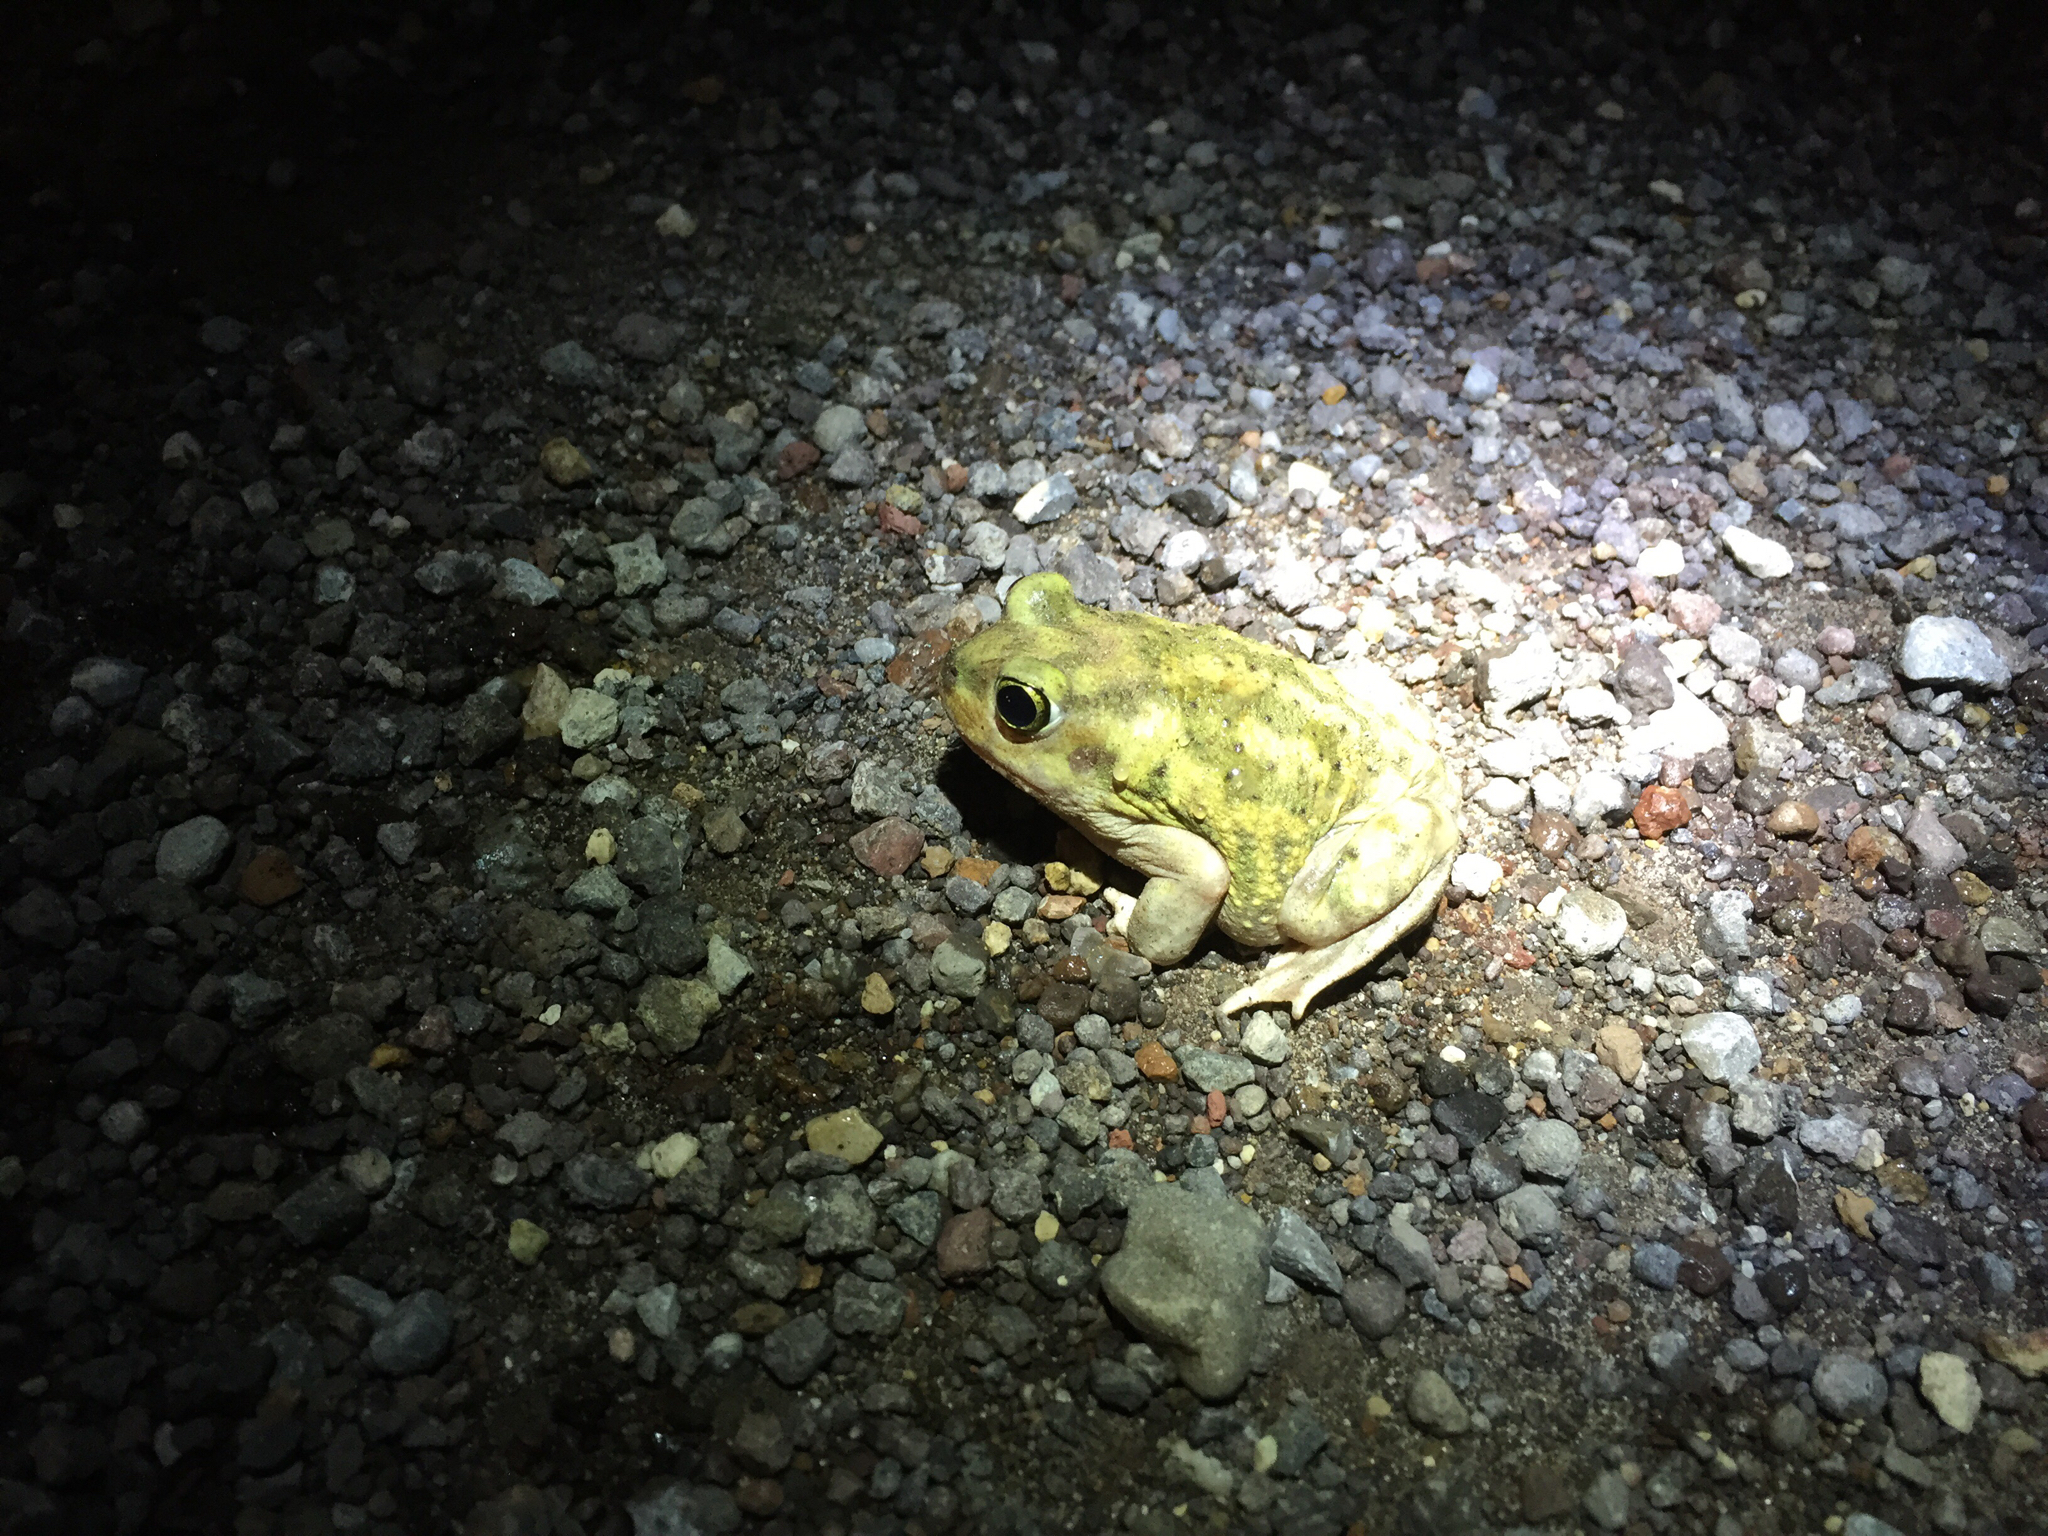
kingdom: Animalia
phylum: Chordata
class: Amphibia
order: Anura
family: Scaphiopodidae
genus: Scaphiopus
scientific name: Scaphiopus couchii
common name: Couch's spadefoot toad
